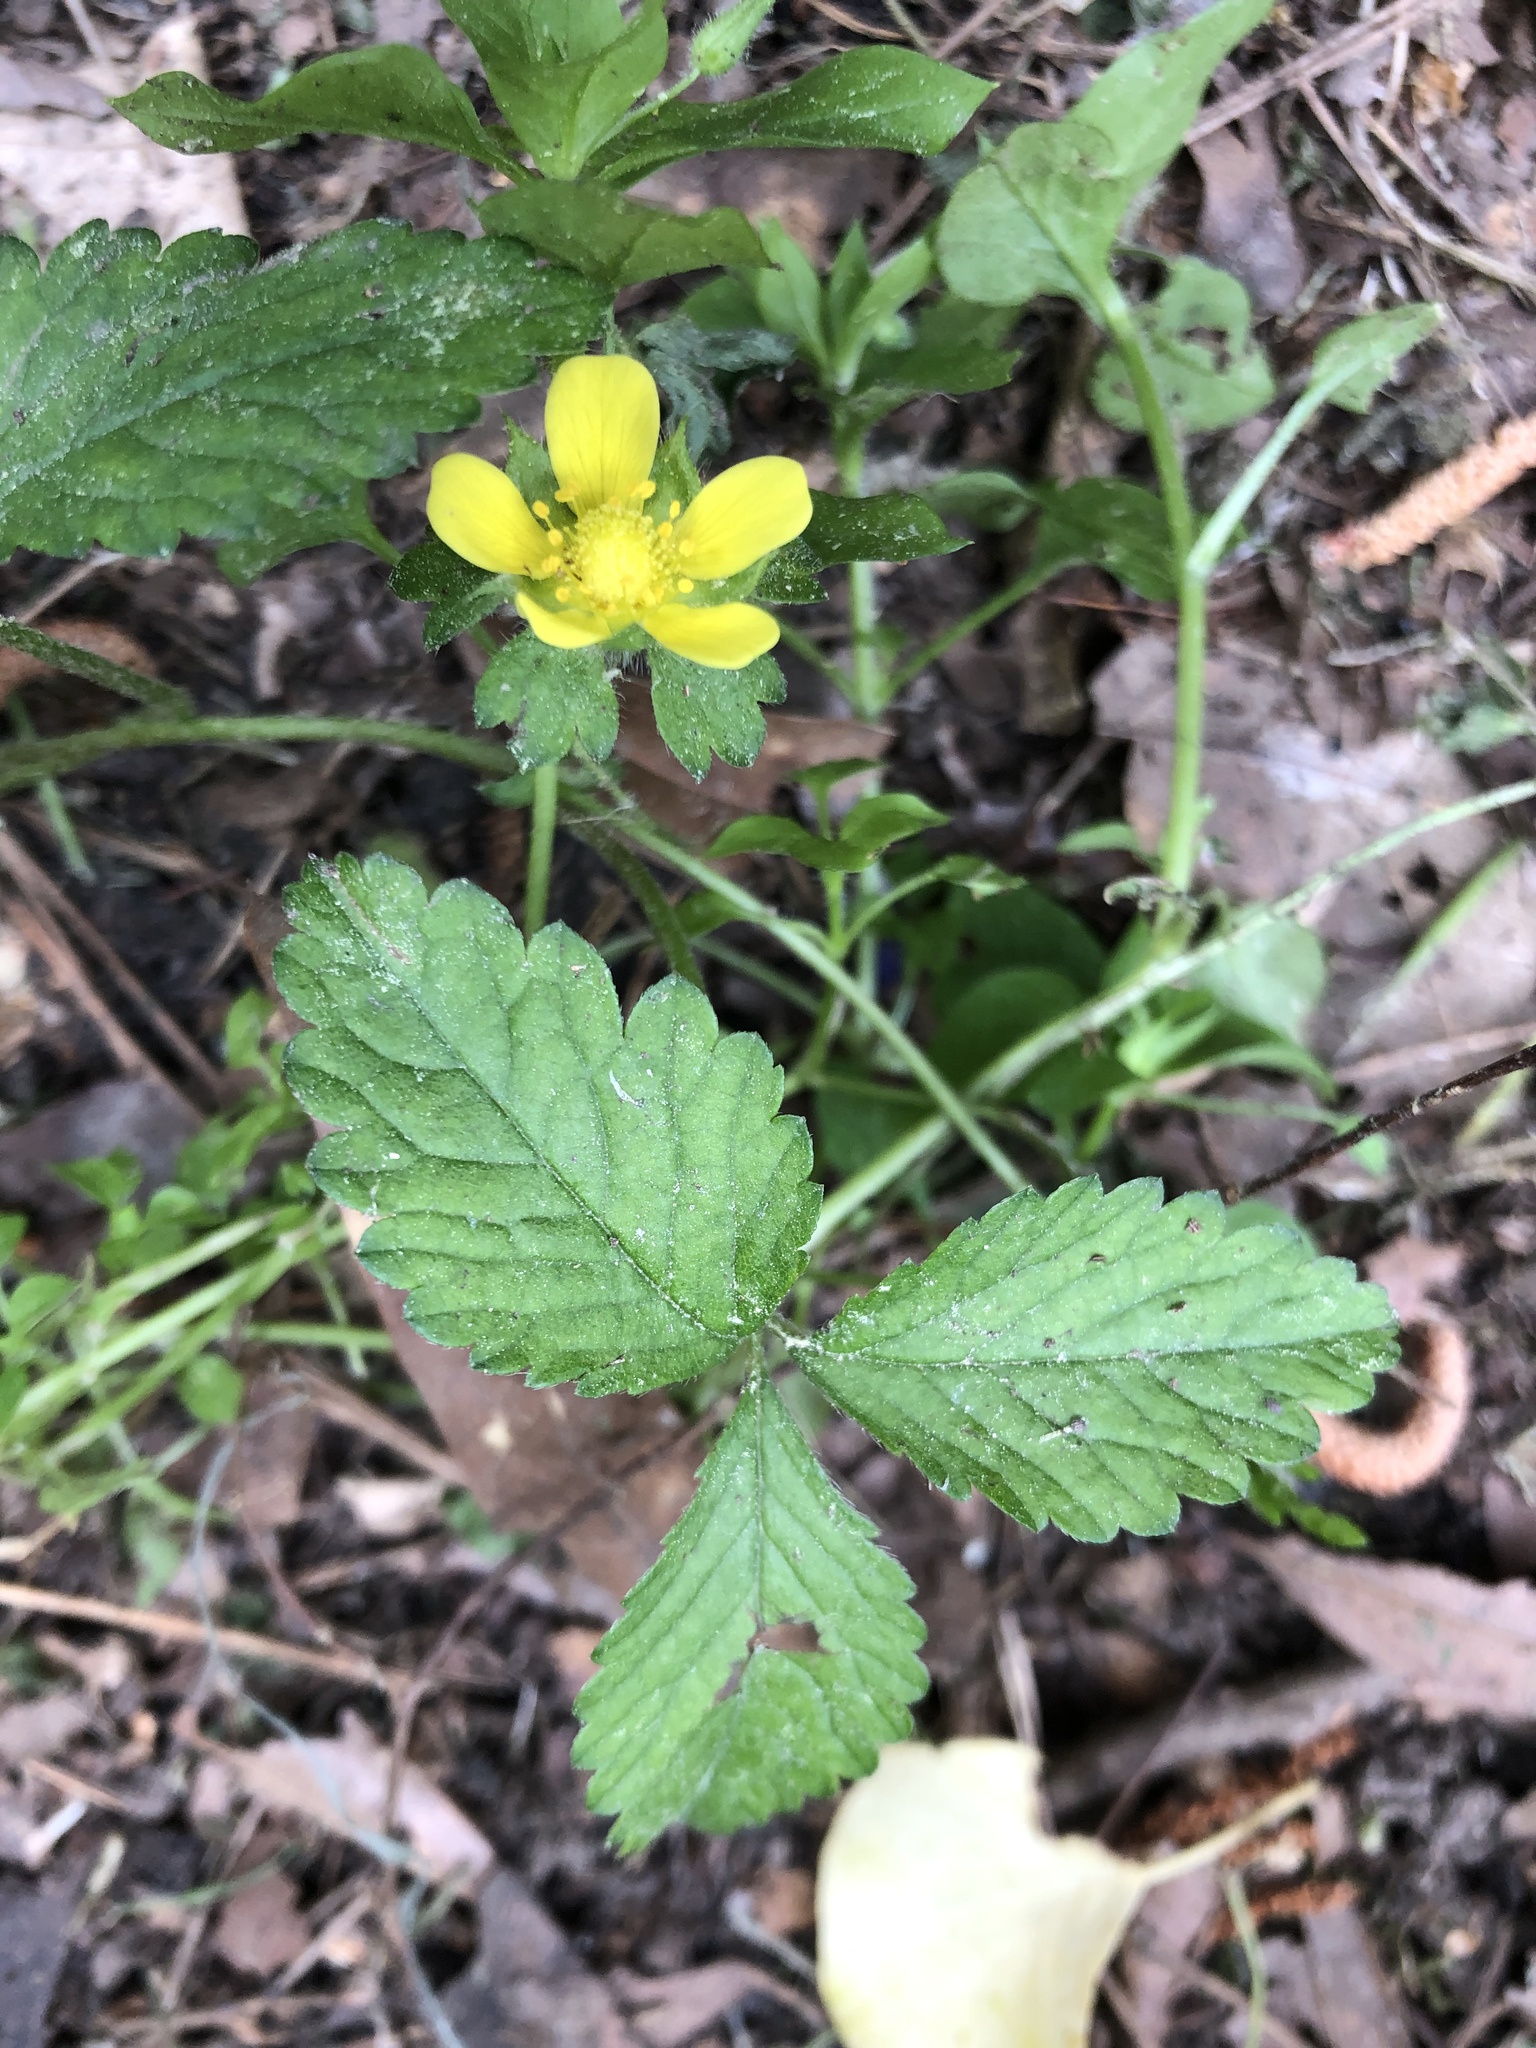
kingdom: Plantae
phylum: Tracheophyta
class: Magnoliopsida
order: Rosales
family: Rosaceae
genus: Potentilla
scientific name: Potentilla indica
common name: Yellow-flowered strawberry
